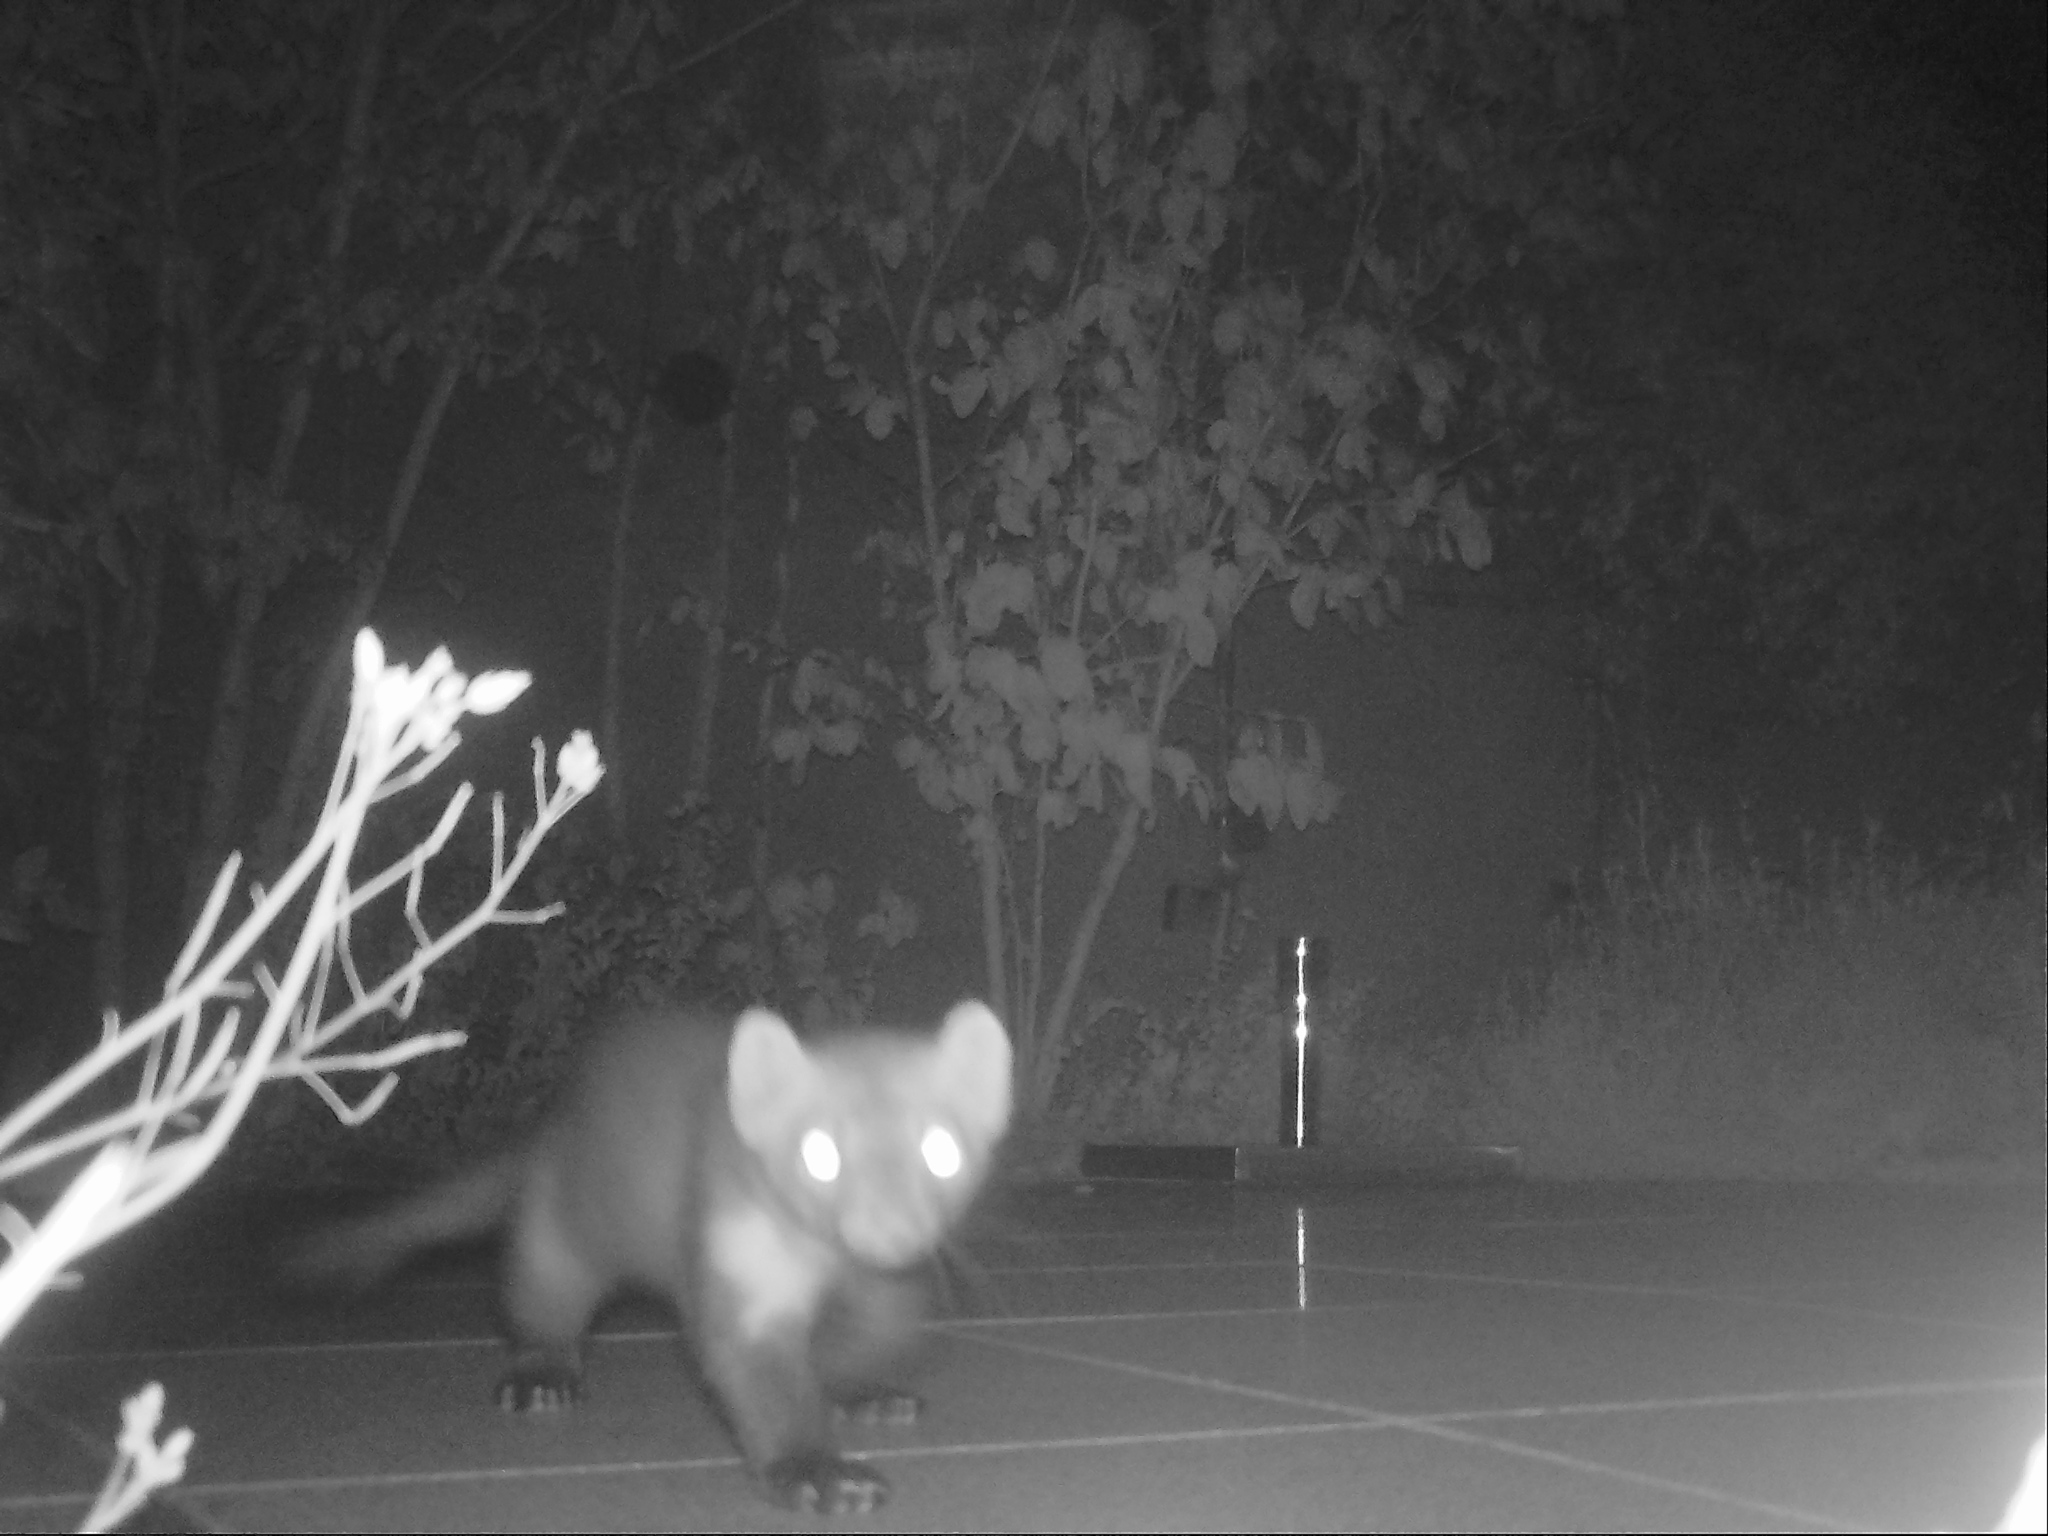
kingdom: Animalia
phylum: Chordata
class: Mammalia
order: Carnivora
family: Mustelidae
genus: Martes
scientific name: Martes foina
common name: Beech marten
